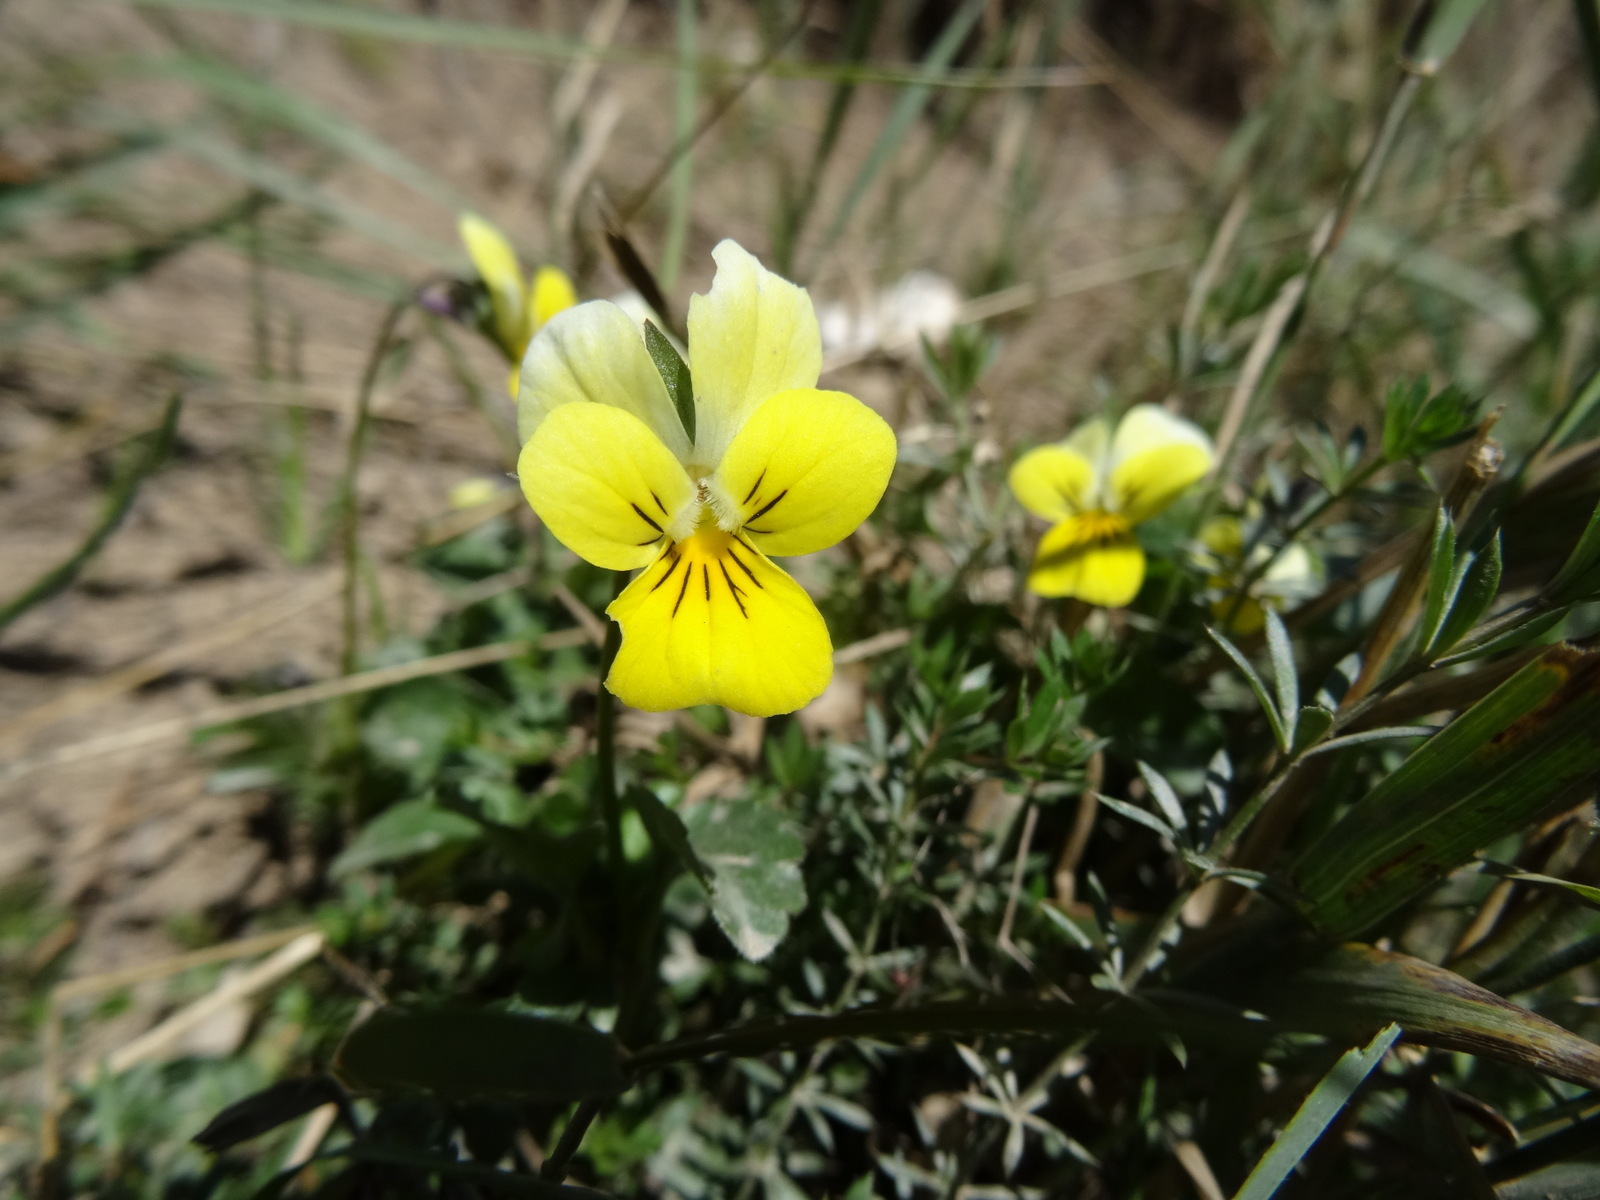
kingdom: Plantae
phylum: Tracheophyta
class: Magnoliopsida
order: Malpighiales
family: Violaceae
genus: Viola
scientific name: Viola calcarata
